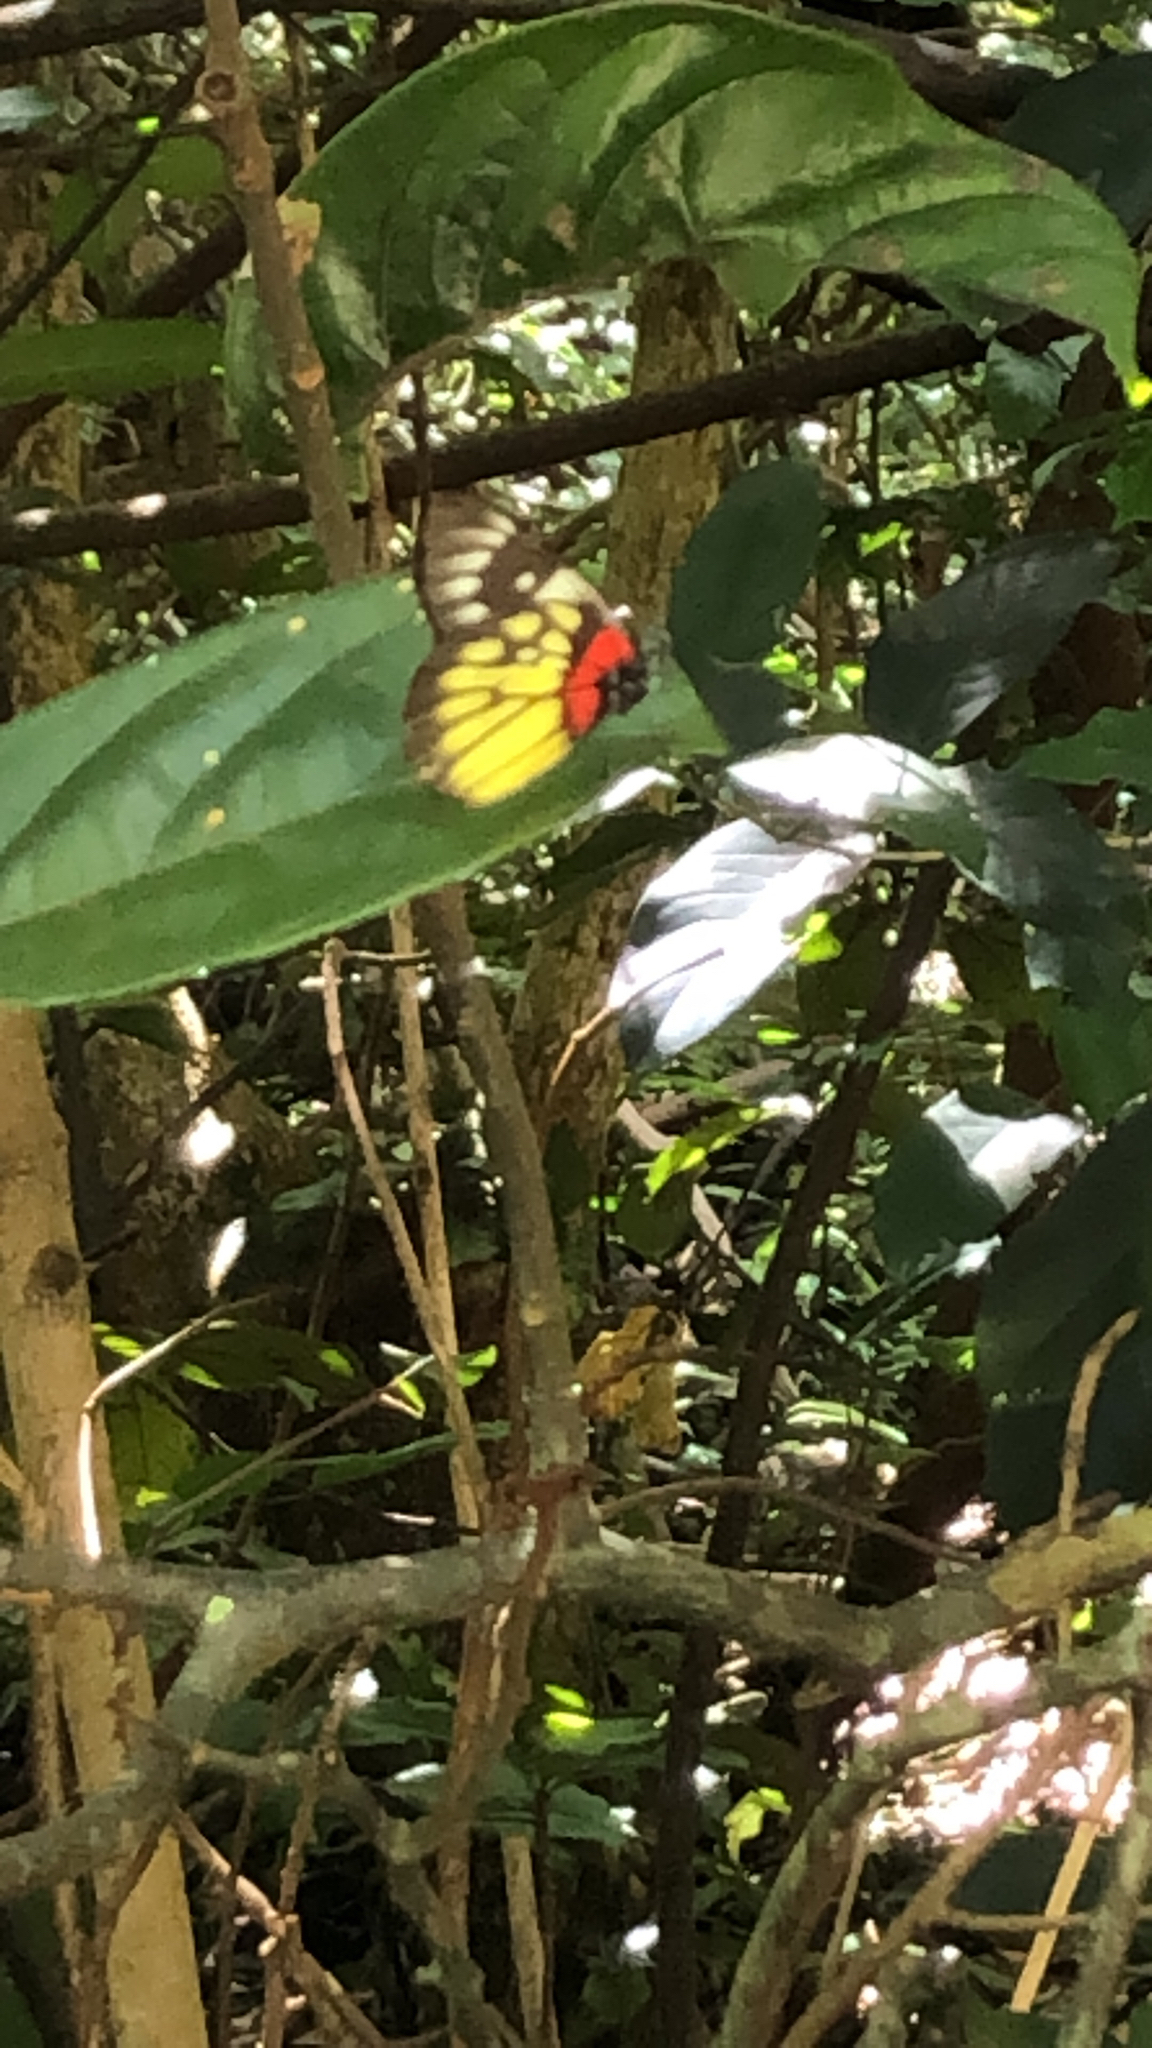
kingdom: Animalia
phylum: Arthropoda
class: Insecta
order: Lepidoptera
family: Pieridae
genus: Delias
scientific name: Delias pasithoe
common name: Red-base jezebel
